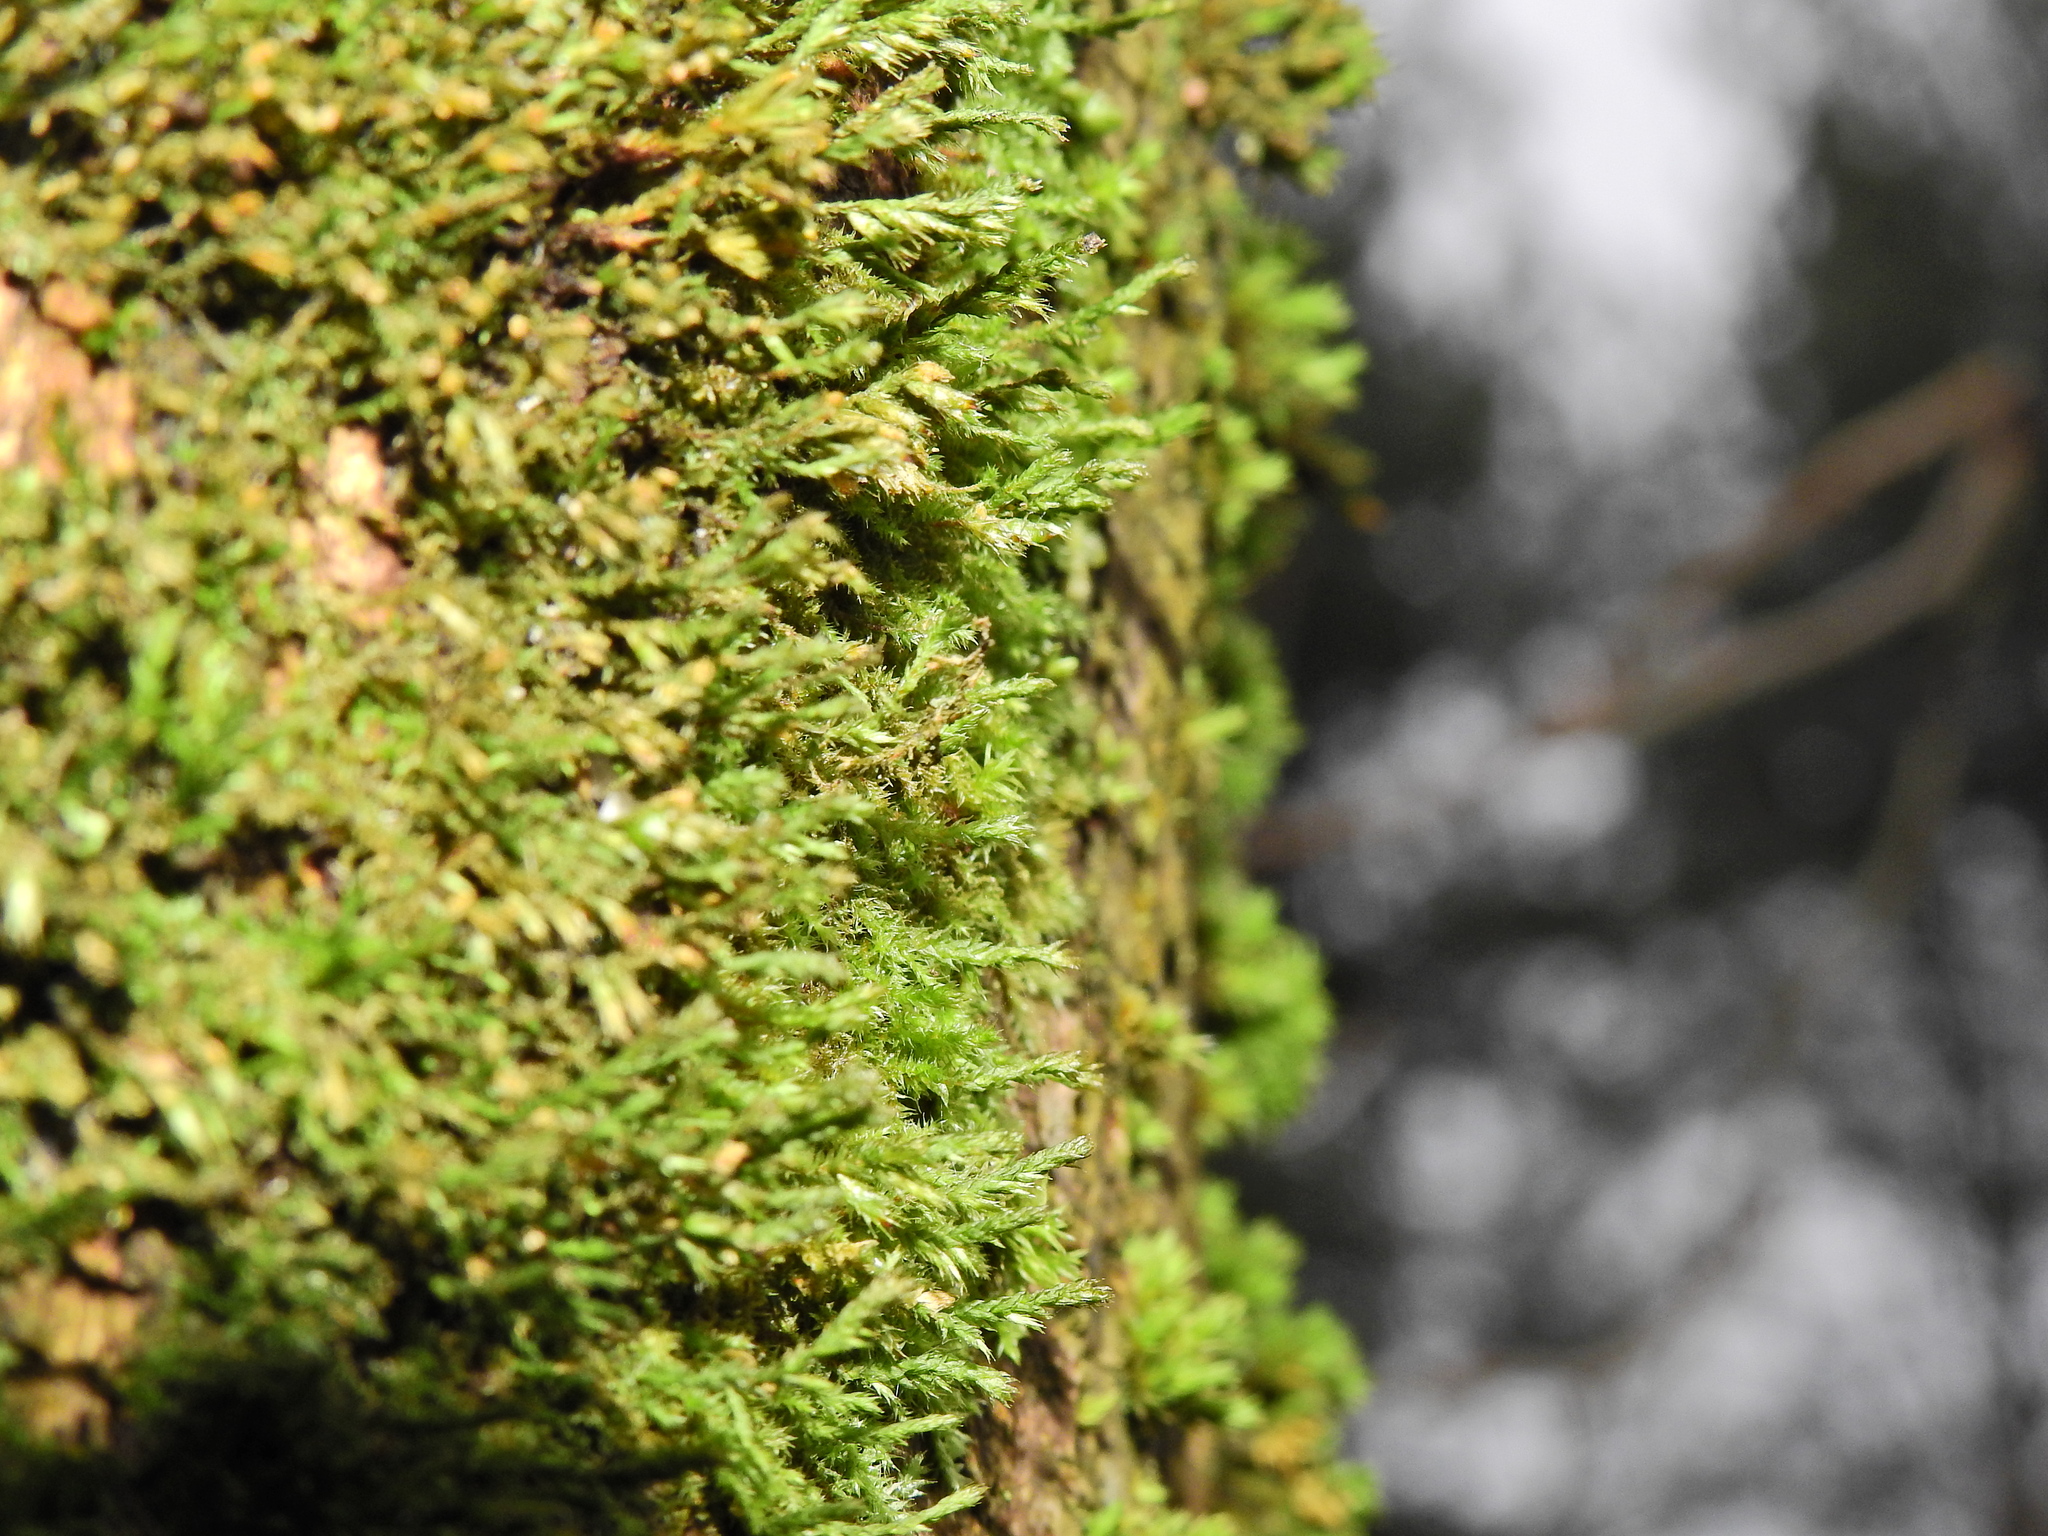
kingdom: Plantae
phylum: Bryophyta
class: Bryopsida
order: Hypnales
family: Cryphaeaceae
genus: Cryphaea
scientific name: Cryphaea heteromalla
